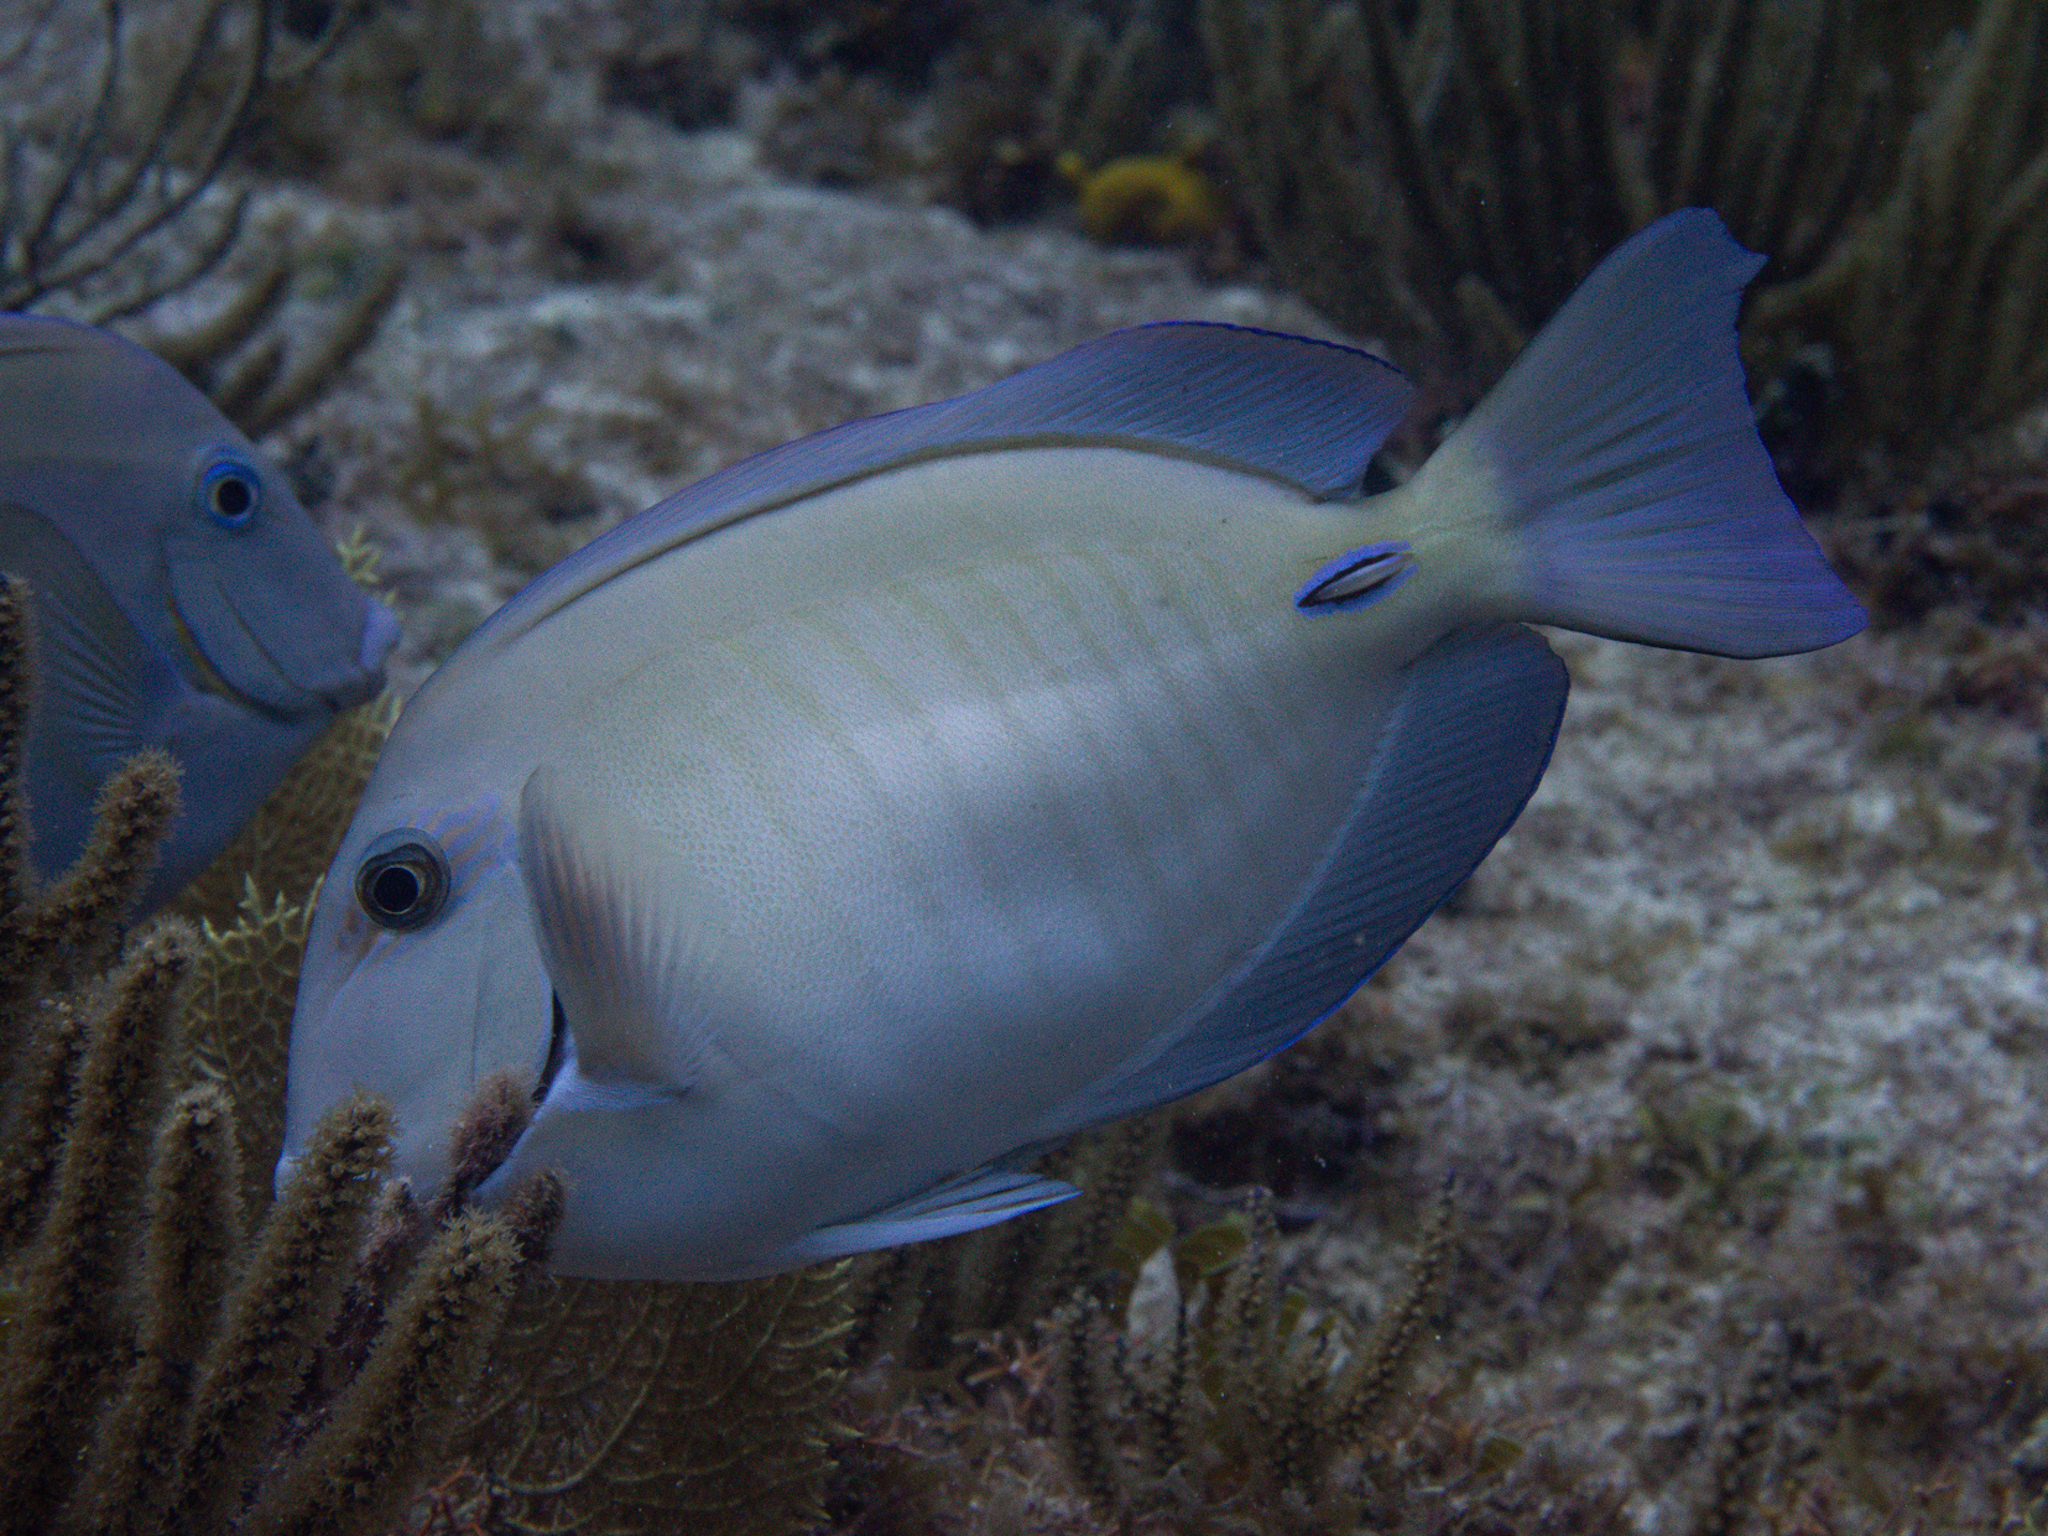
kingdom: Animalia
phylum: Chordata
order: Perciformes
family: Acanthuridae
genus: Acanthurus
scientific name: Acanthurus chirurgus
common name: Doctorfish
